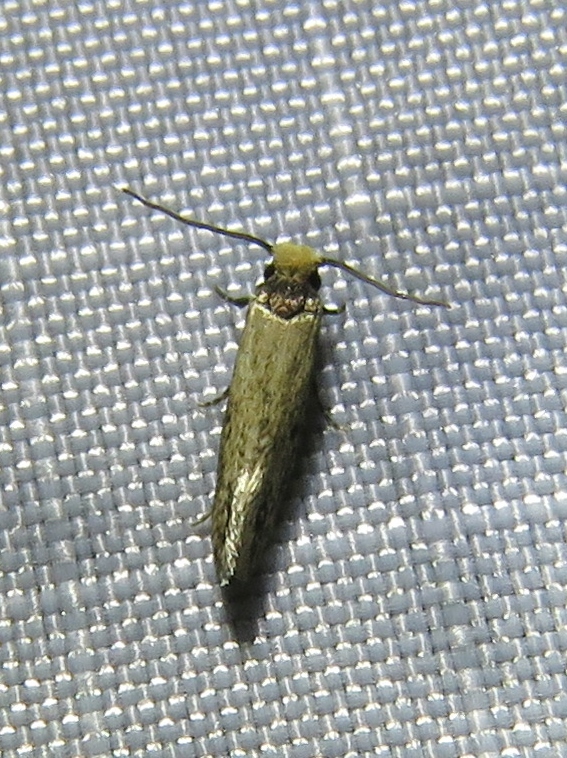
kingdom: Animalia
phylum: Arthropoda
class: Insecta
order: Lepidoptera
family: Tineidae
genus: Tinea
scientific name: Tinea apicimaculella
